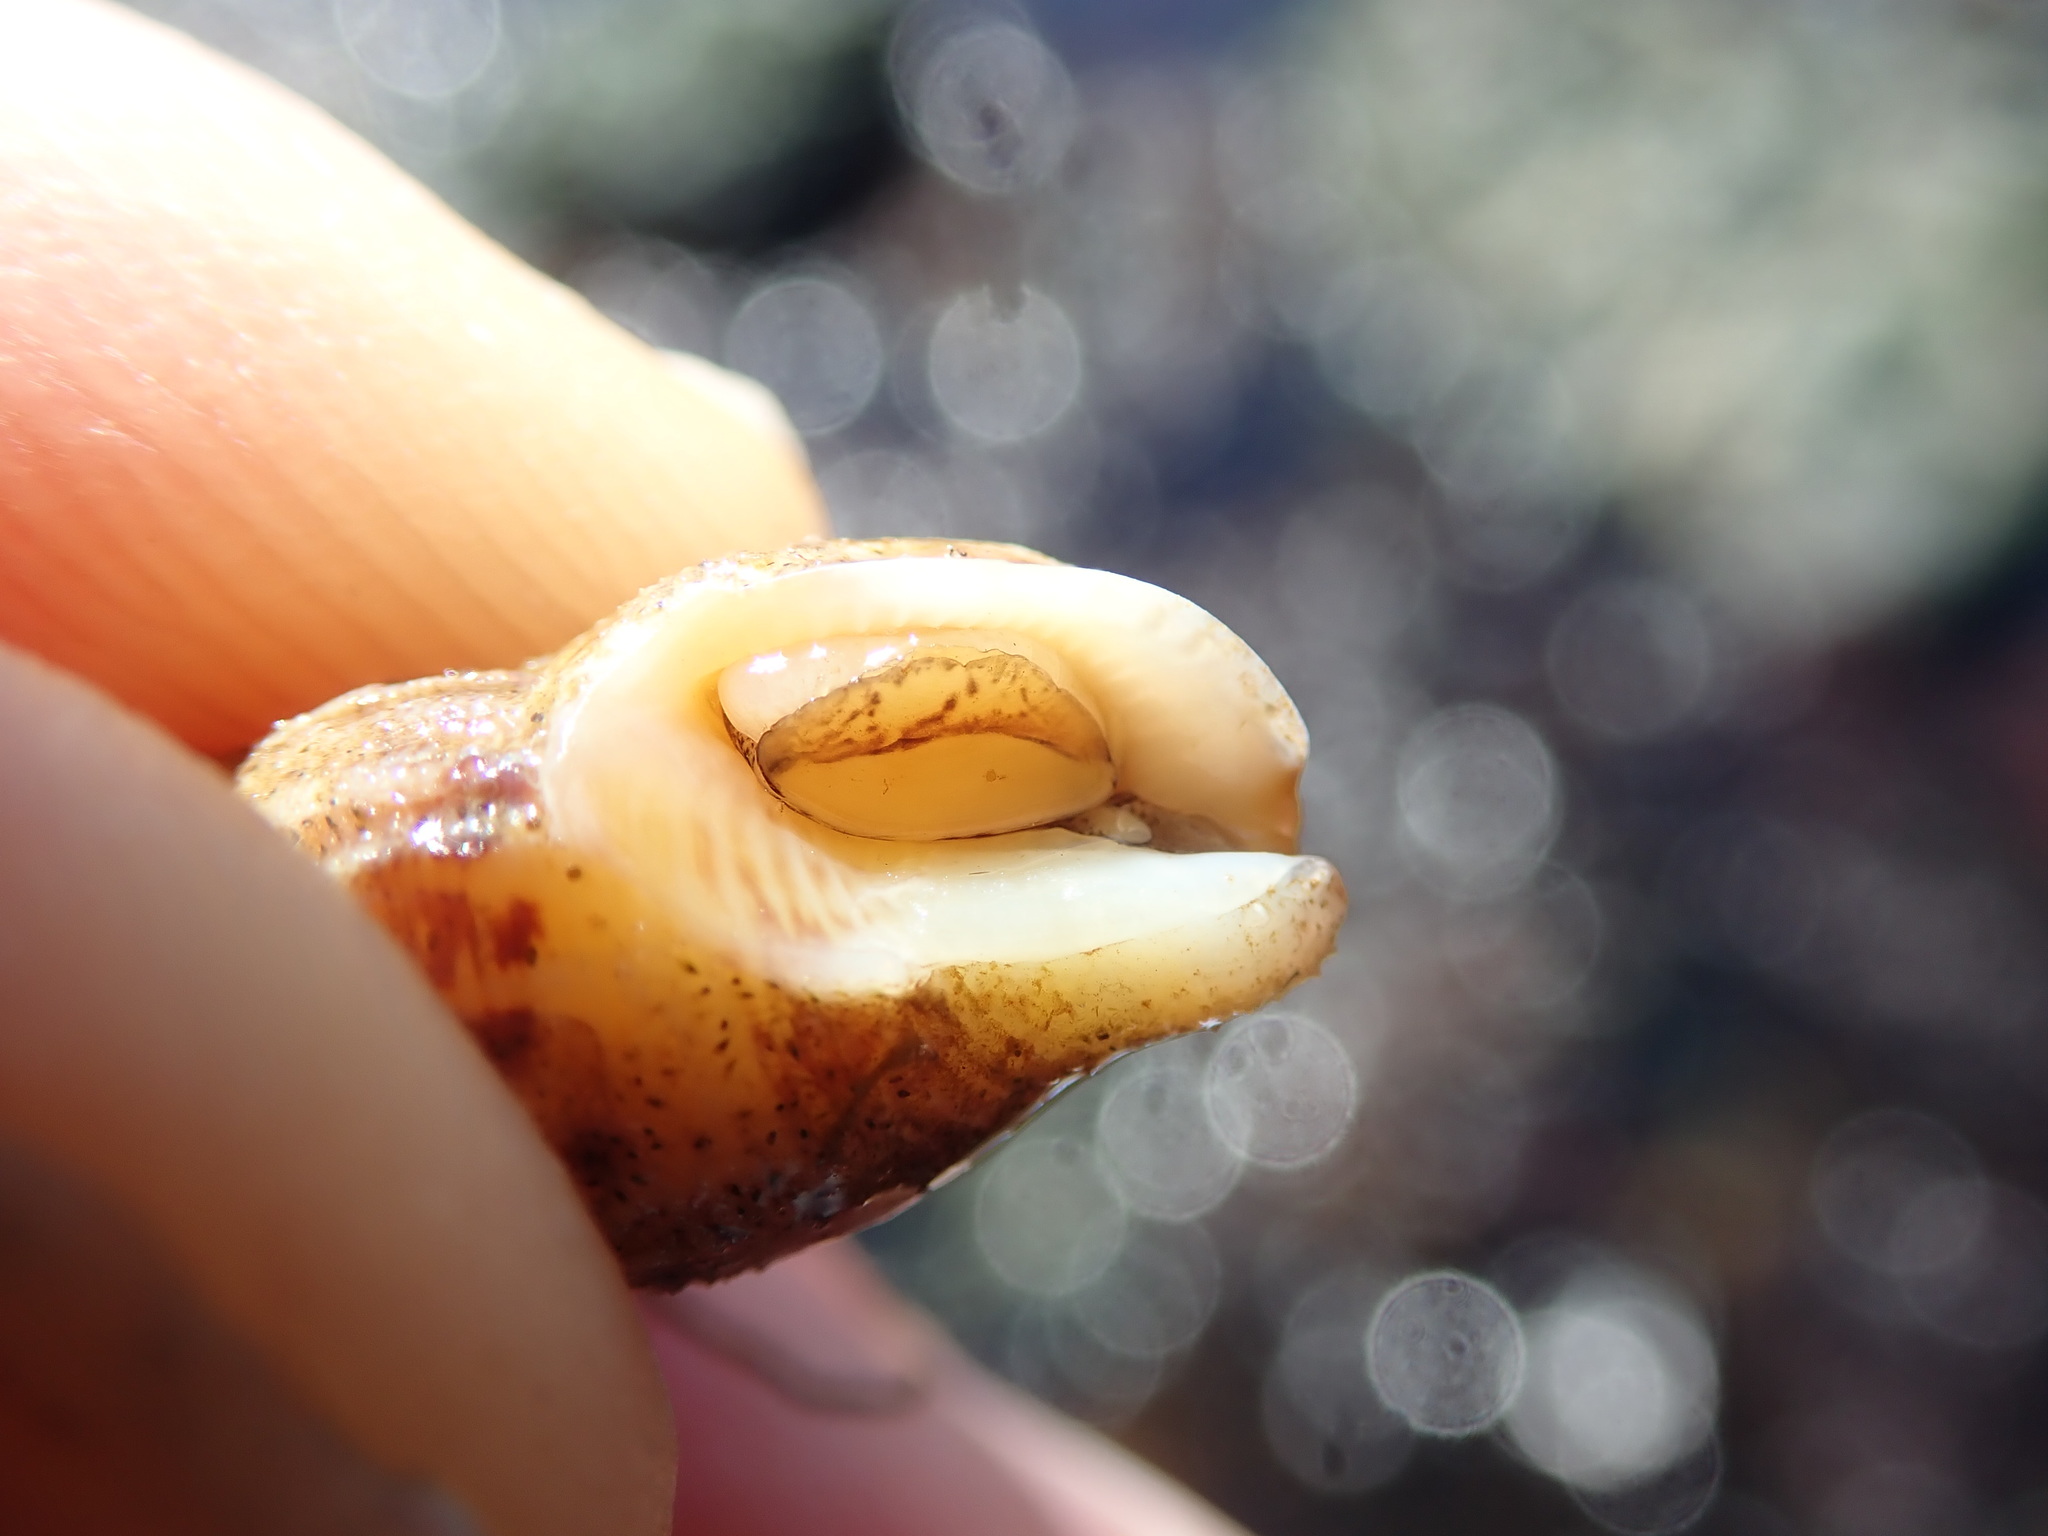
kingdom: Animalia
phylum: Mollusca
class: Gastropoda
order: Neogastropoda
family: Columbellidae
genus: Amphissa
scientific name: Amphissa columbiana
